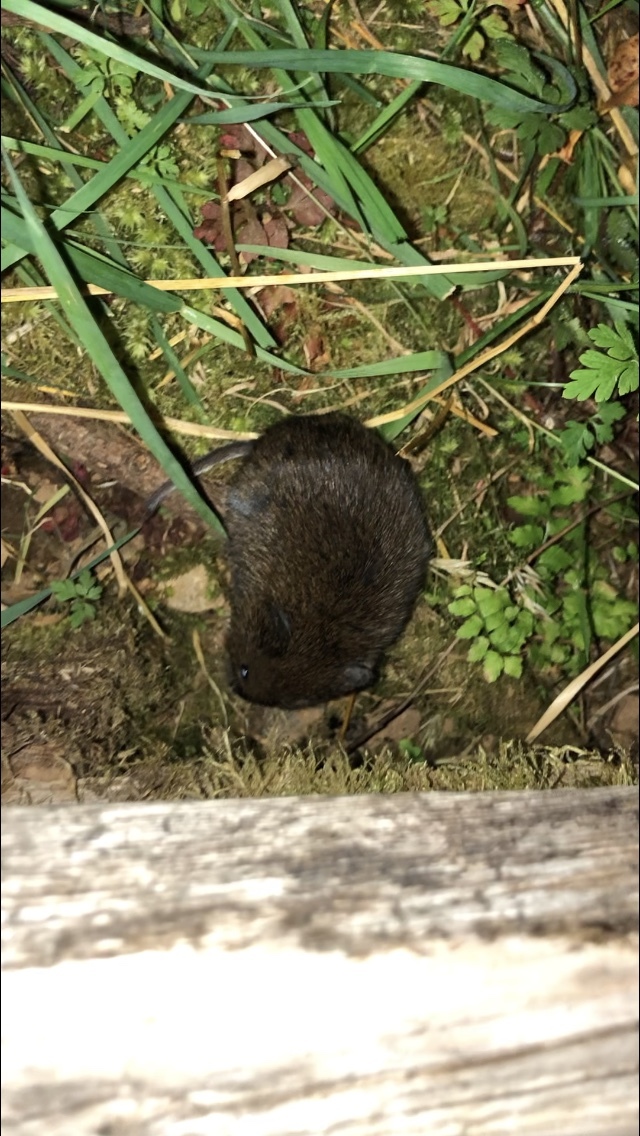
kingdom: Animalia
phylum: Chordata
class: Mammalia
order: Rodentia
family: Cricetidae
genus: Microtus
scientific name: Microtus townsendii
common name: Townsend's vole
